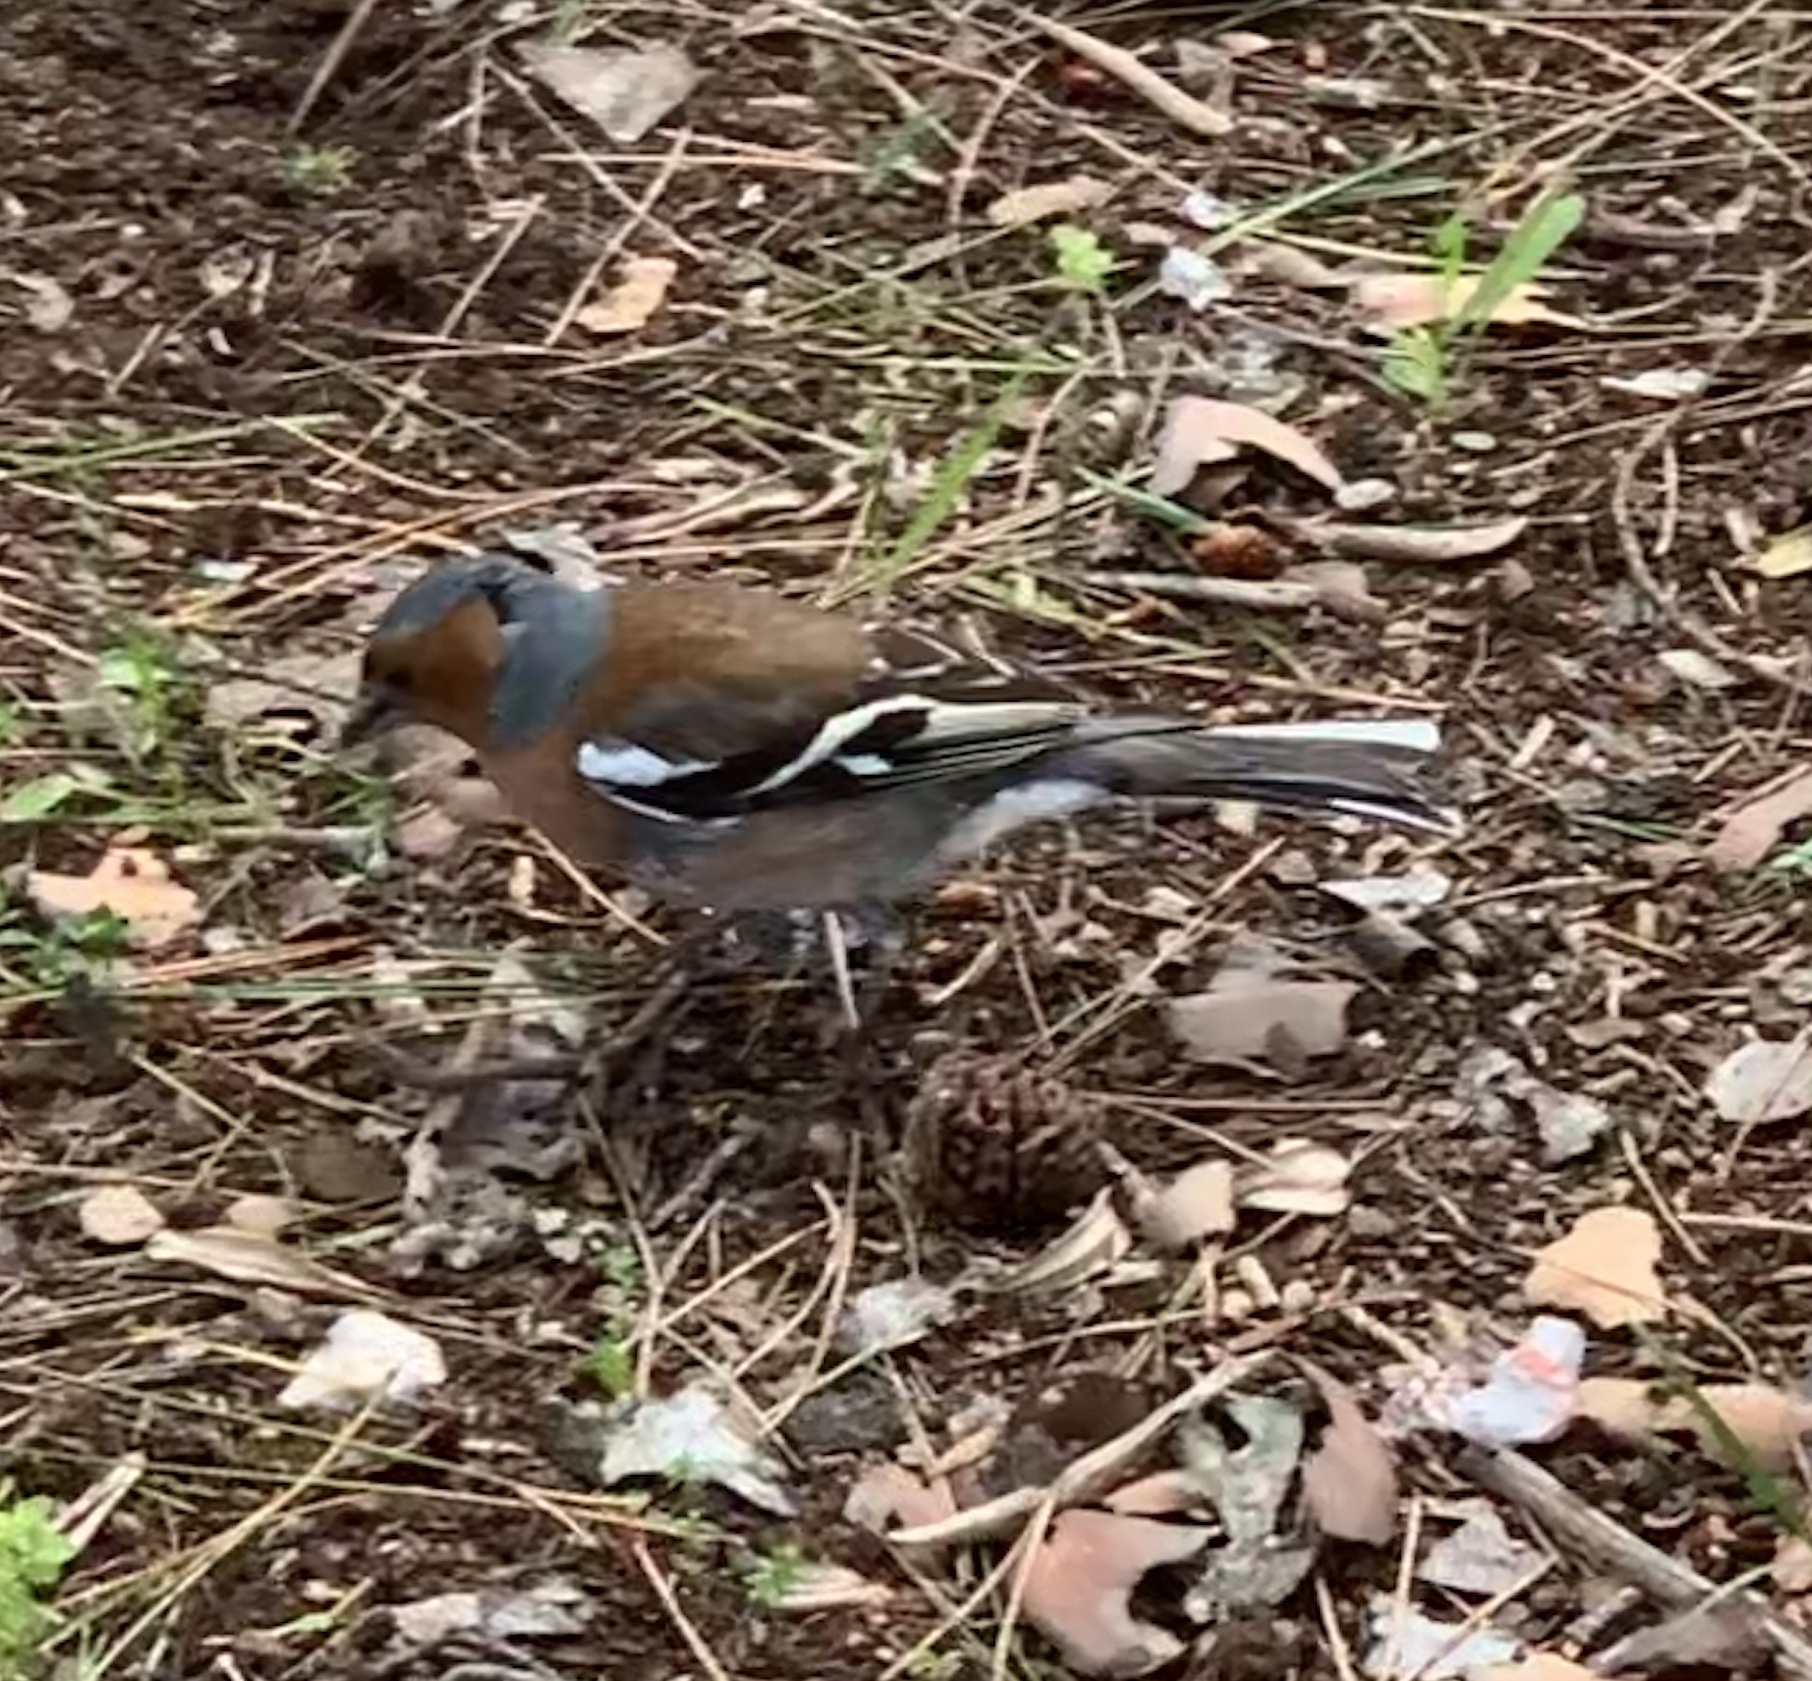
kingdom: Animalia
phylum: Chordata
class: Aves
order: Passeriformes
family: Fringillidae
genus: Fringilla
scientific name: Fringilla coelebs
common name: Common chaffinch
